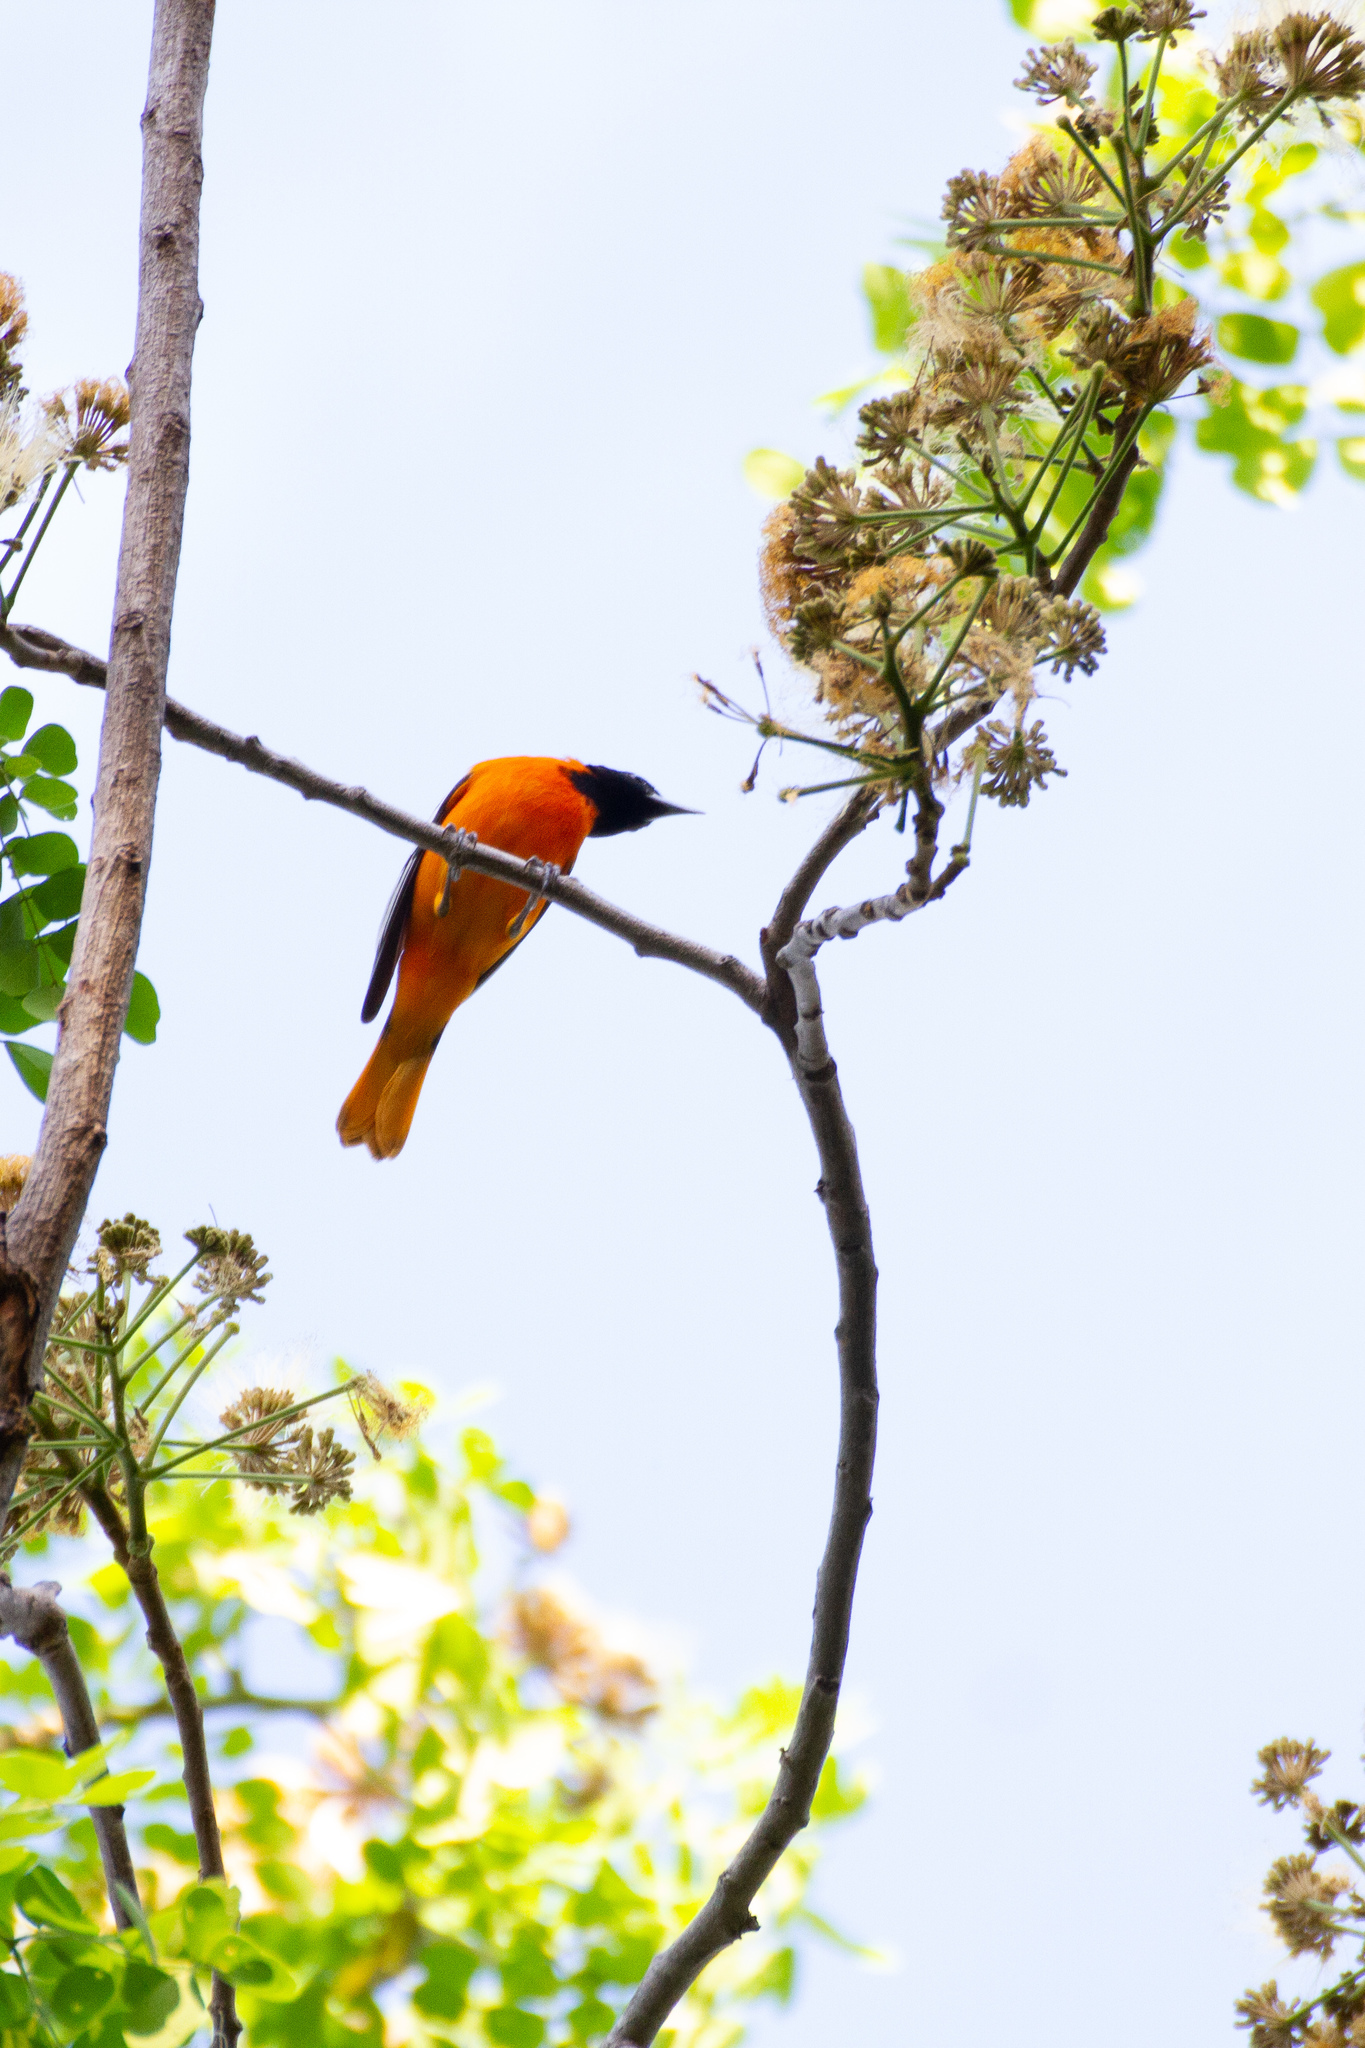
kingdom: Animalia
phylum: Chordata
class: Aves
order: Passeriformes
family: Icteridae
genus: Icterus
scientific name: Icterus galbula
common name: Baltimore oriole
